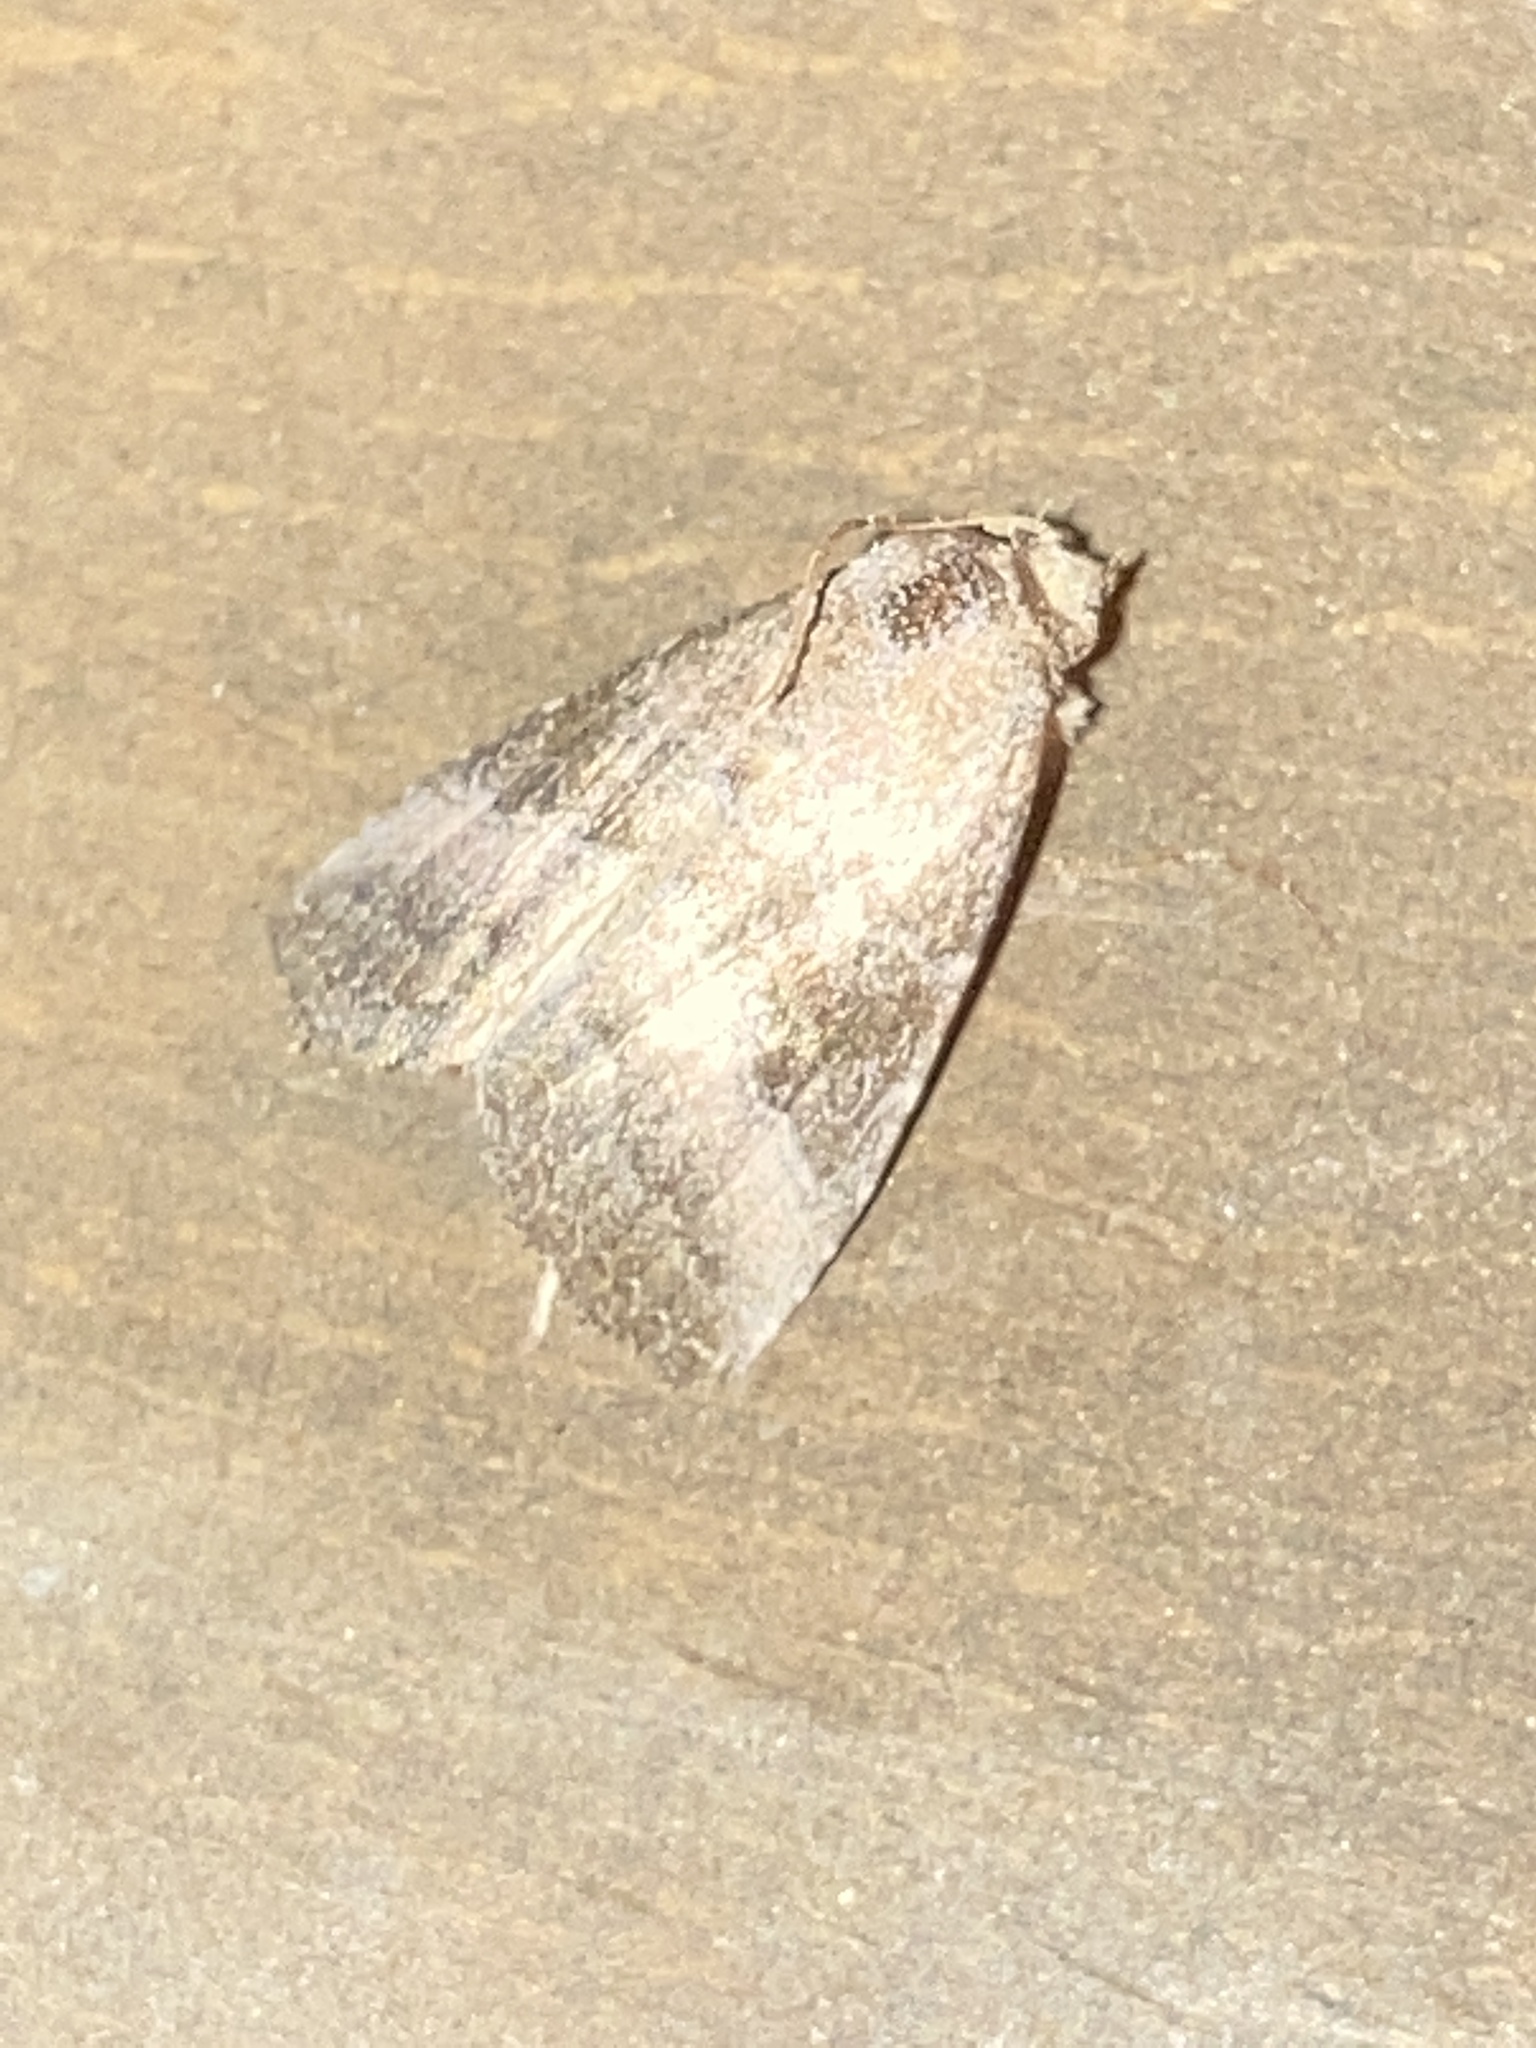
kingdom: Animalia
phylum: Arthropoda
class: Insecta
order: Lepidoptera
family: Noctuidae
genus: Ogdoconta
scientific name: Ogdoconta cinereola
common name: Common pinkband
